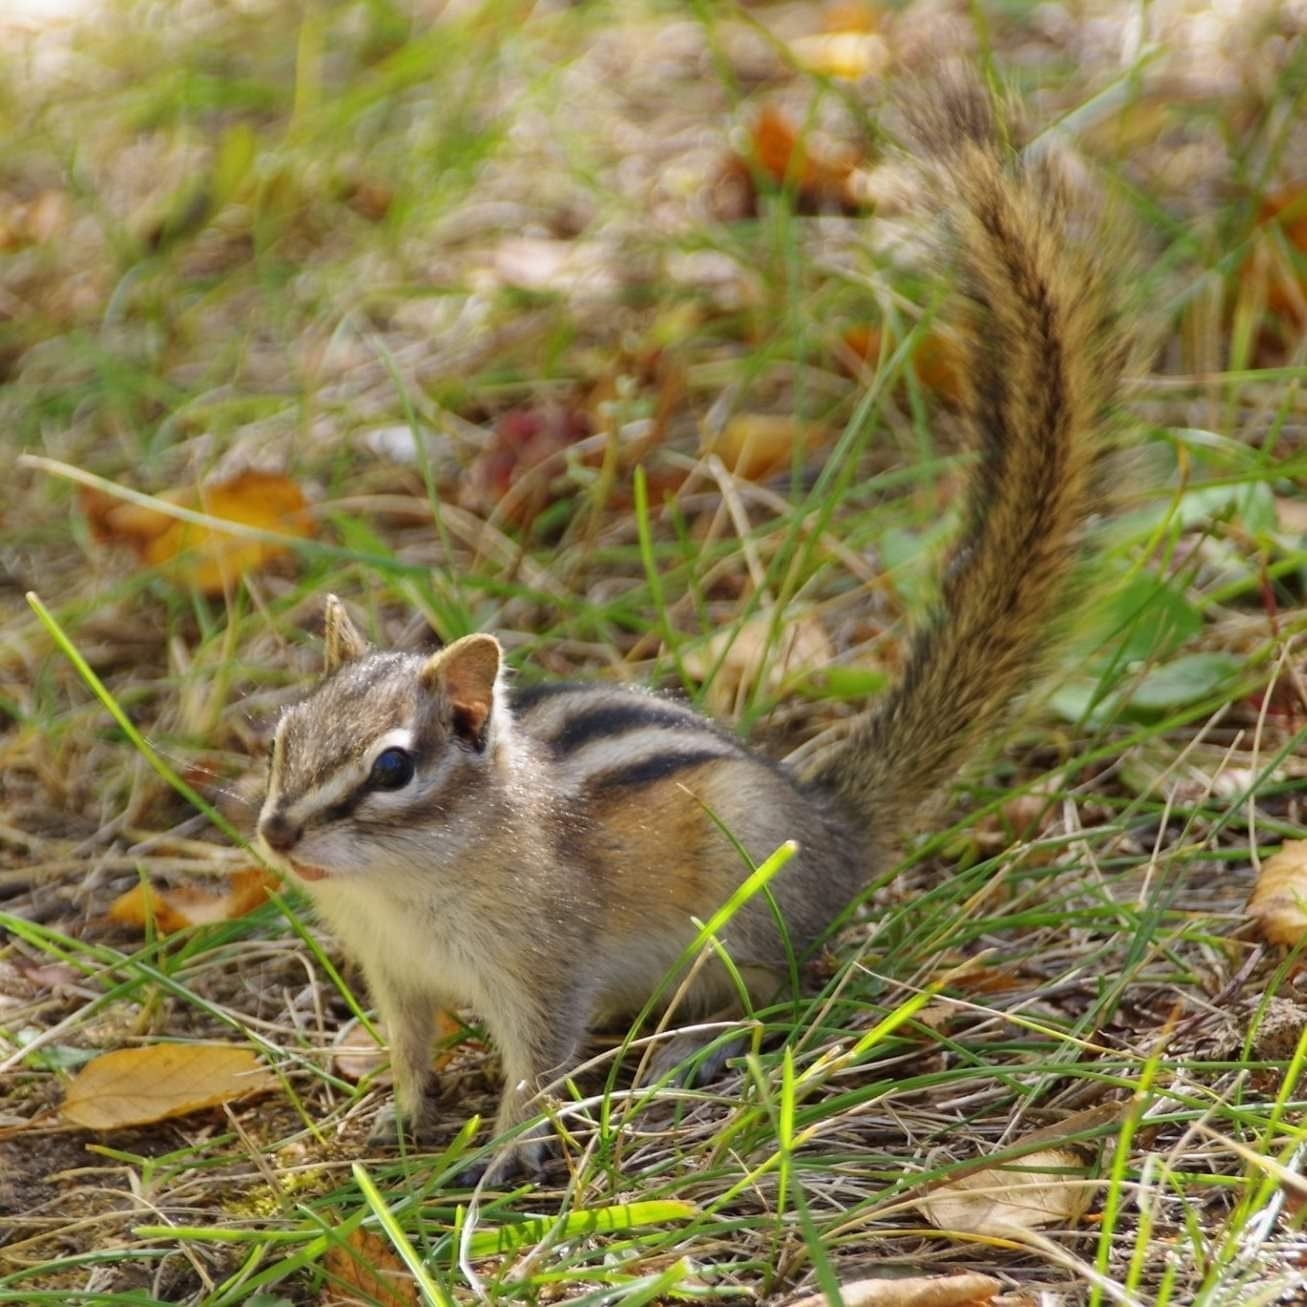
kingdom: Animalia
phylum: Chordata
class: Mammalia
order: Rodentia
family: Sciuridae
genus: Tamias
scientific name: Tamias minimus
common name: Least chipmunk
